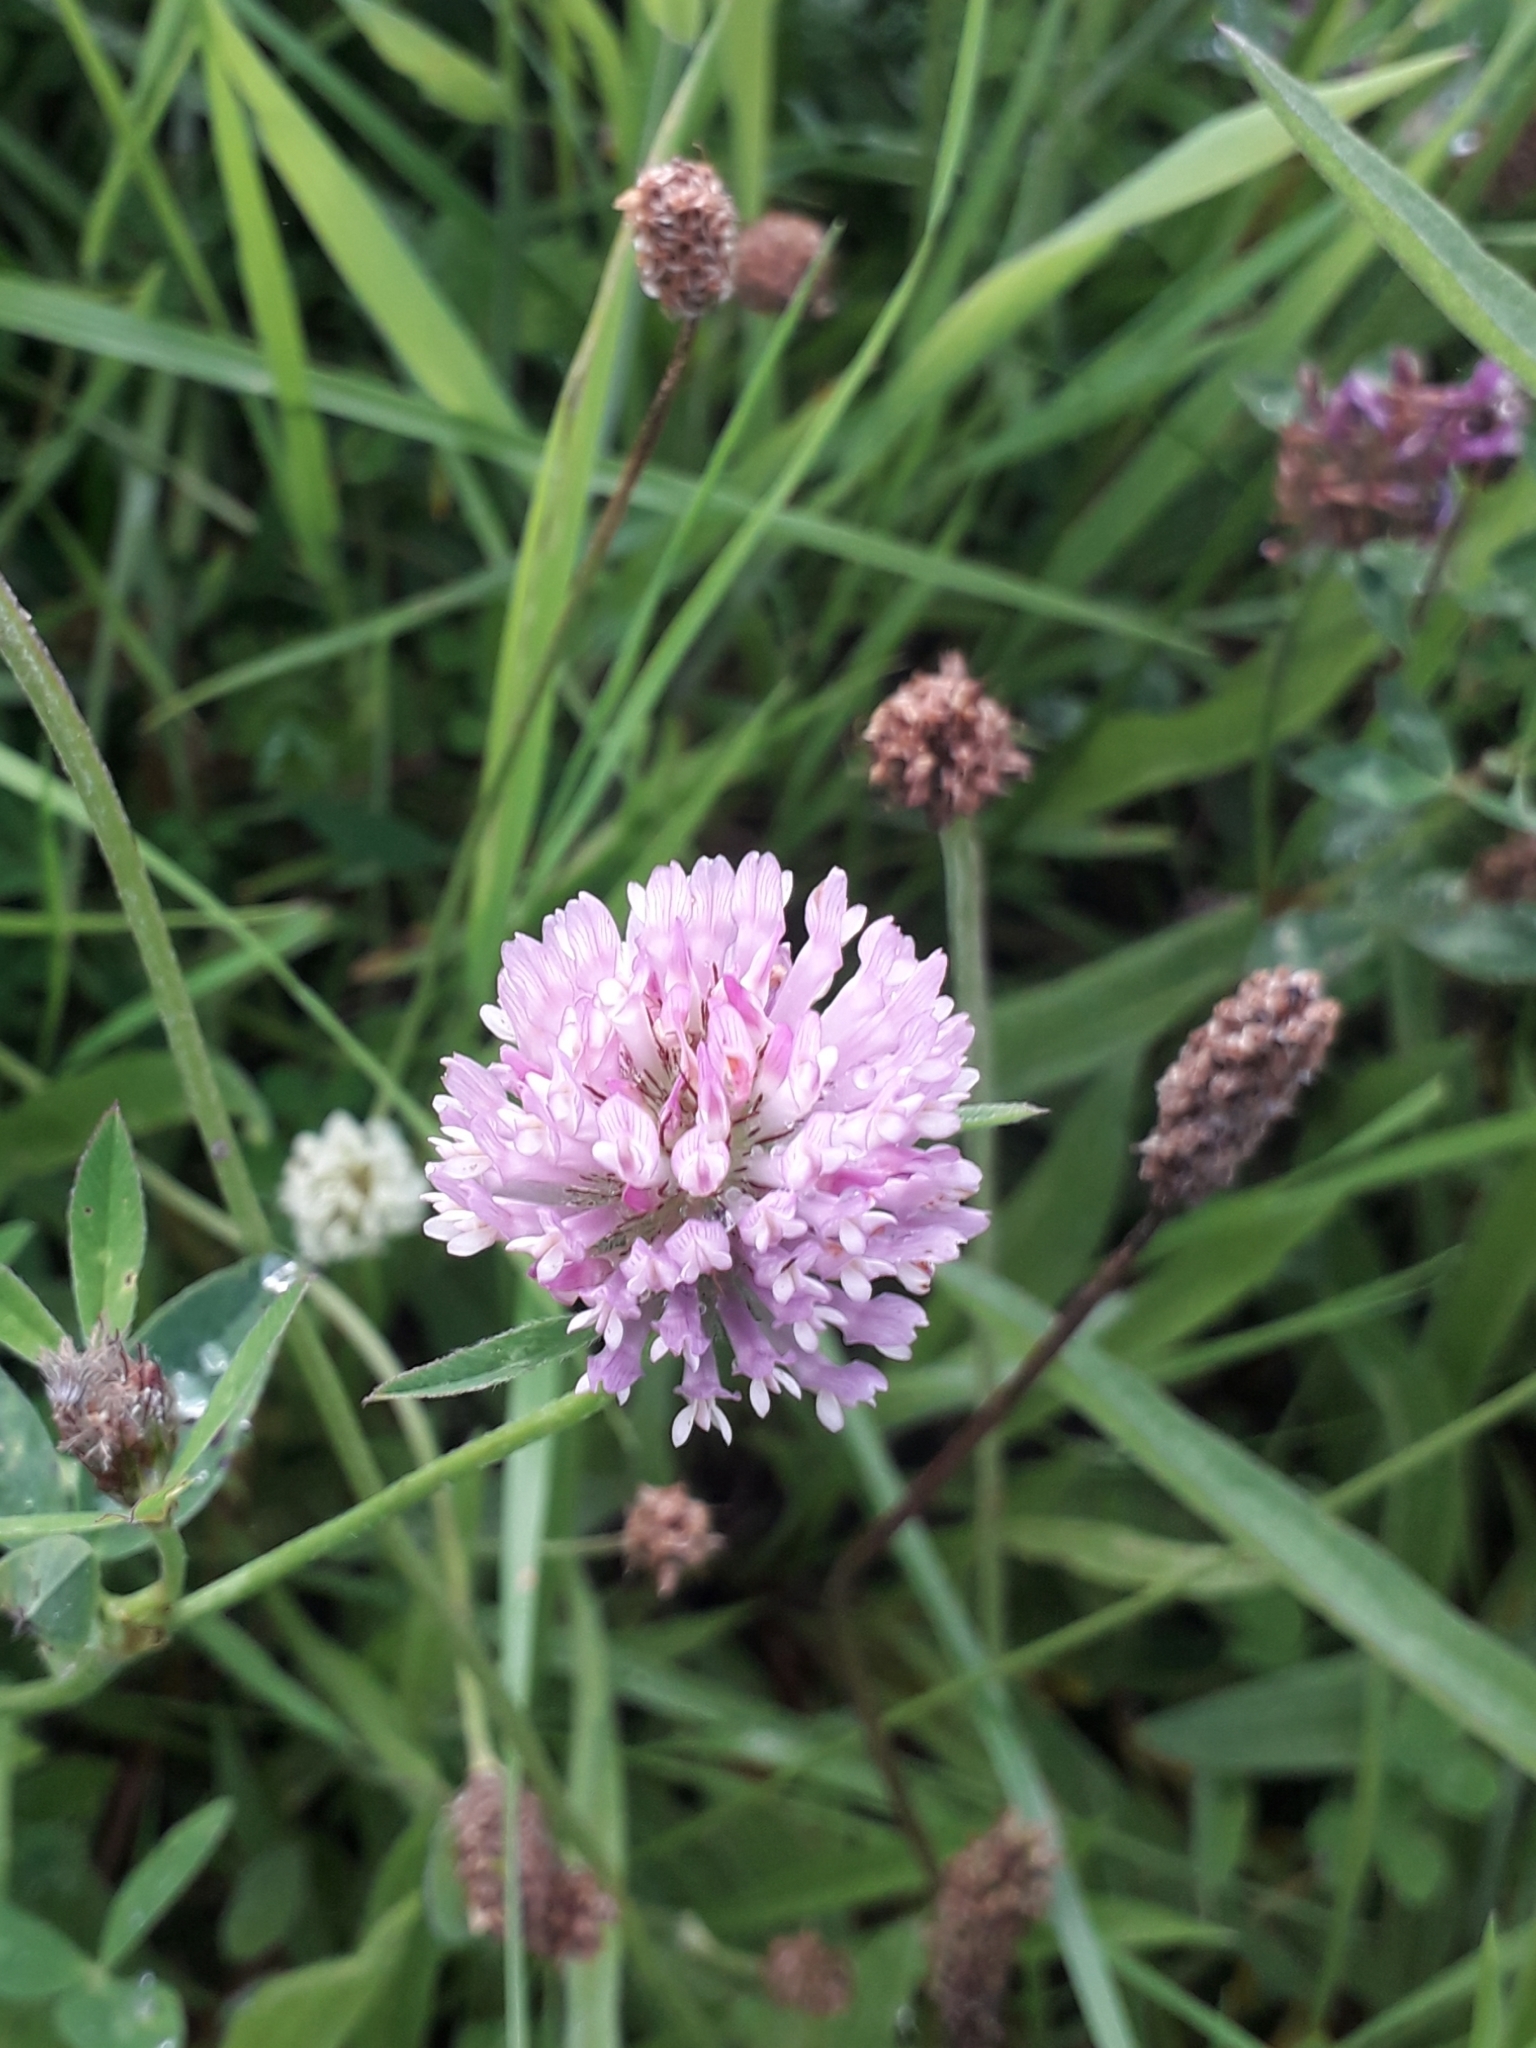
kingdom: Plantae
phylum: Tracheophyta
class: Magnoliopsida
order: Fabales
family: Fabaceae
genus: Trifolium
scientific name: Trifolium pratense
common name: Red clover
